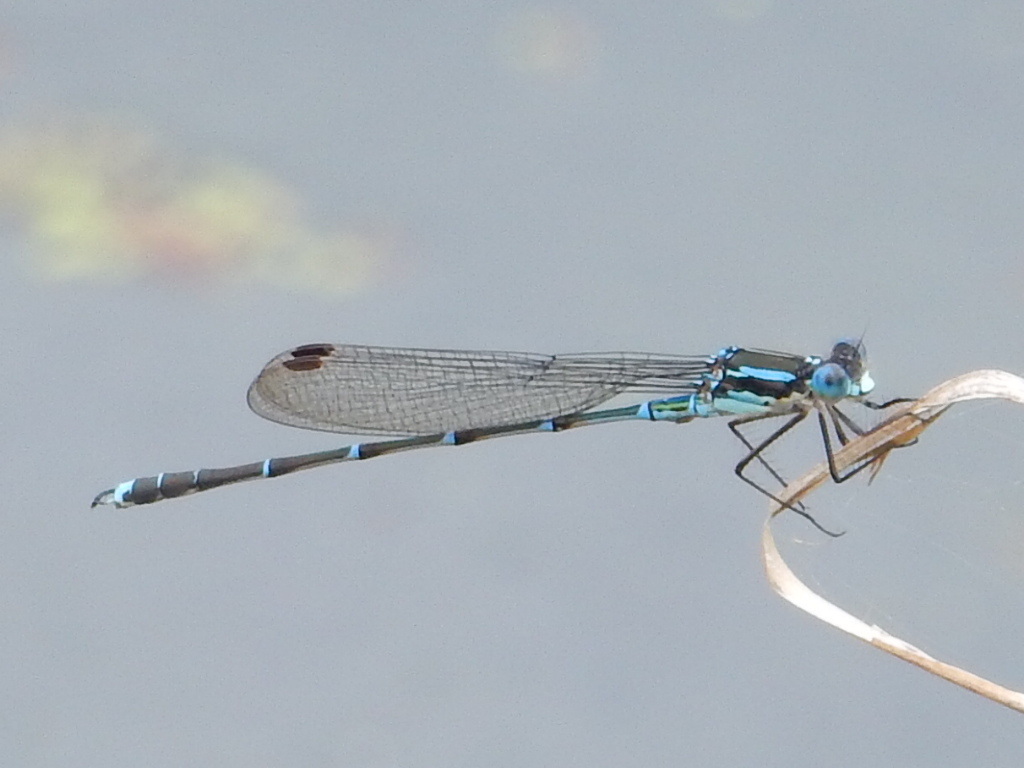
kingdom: Animalia
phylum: Arthropoda
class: Insecta
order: Odonata
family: Lestidae
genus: Austrolestes
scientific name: Austrolestes colensonis
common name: Blue damselfly
